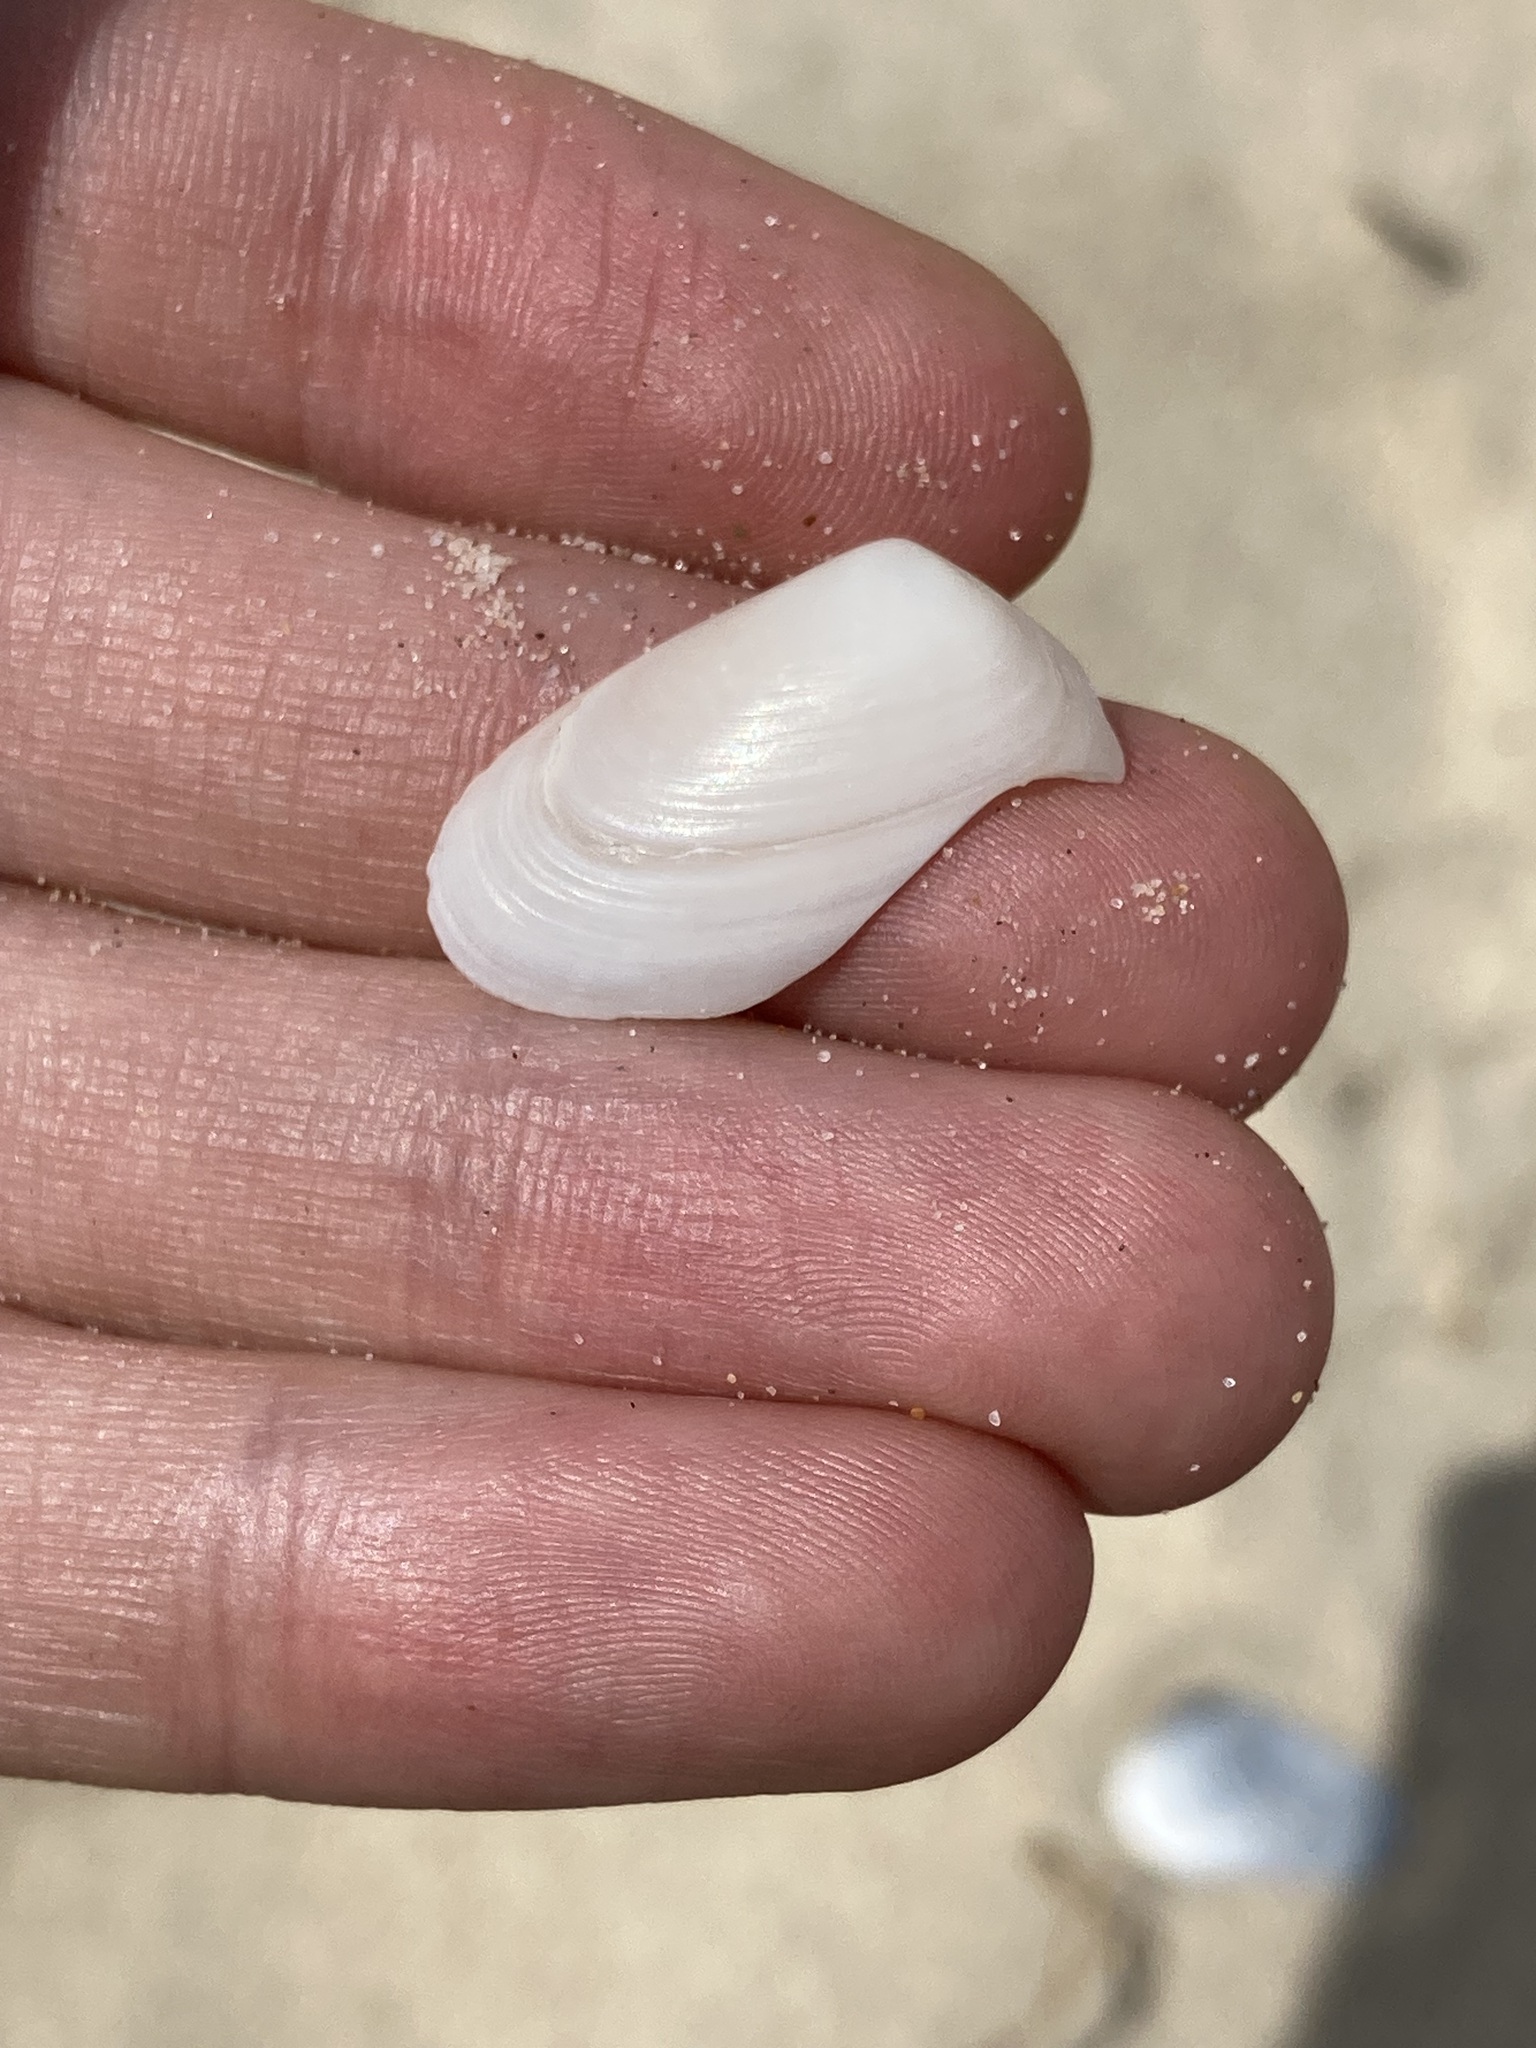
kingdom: Animalia
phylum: Mollusca
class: Bivalvia
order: Venerida
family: Mesodesmatidae
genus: Paphies
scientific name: Paphies angusta
